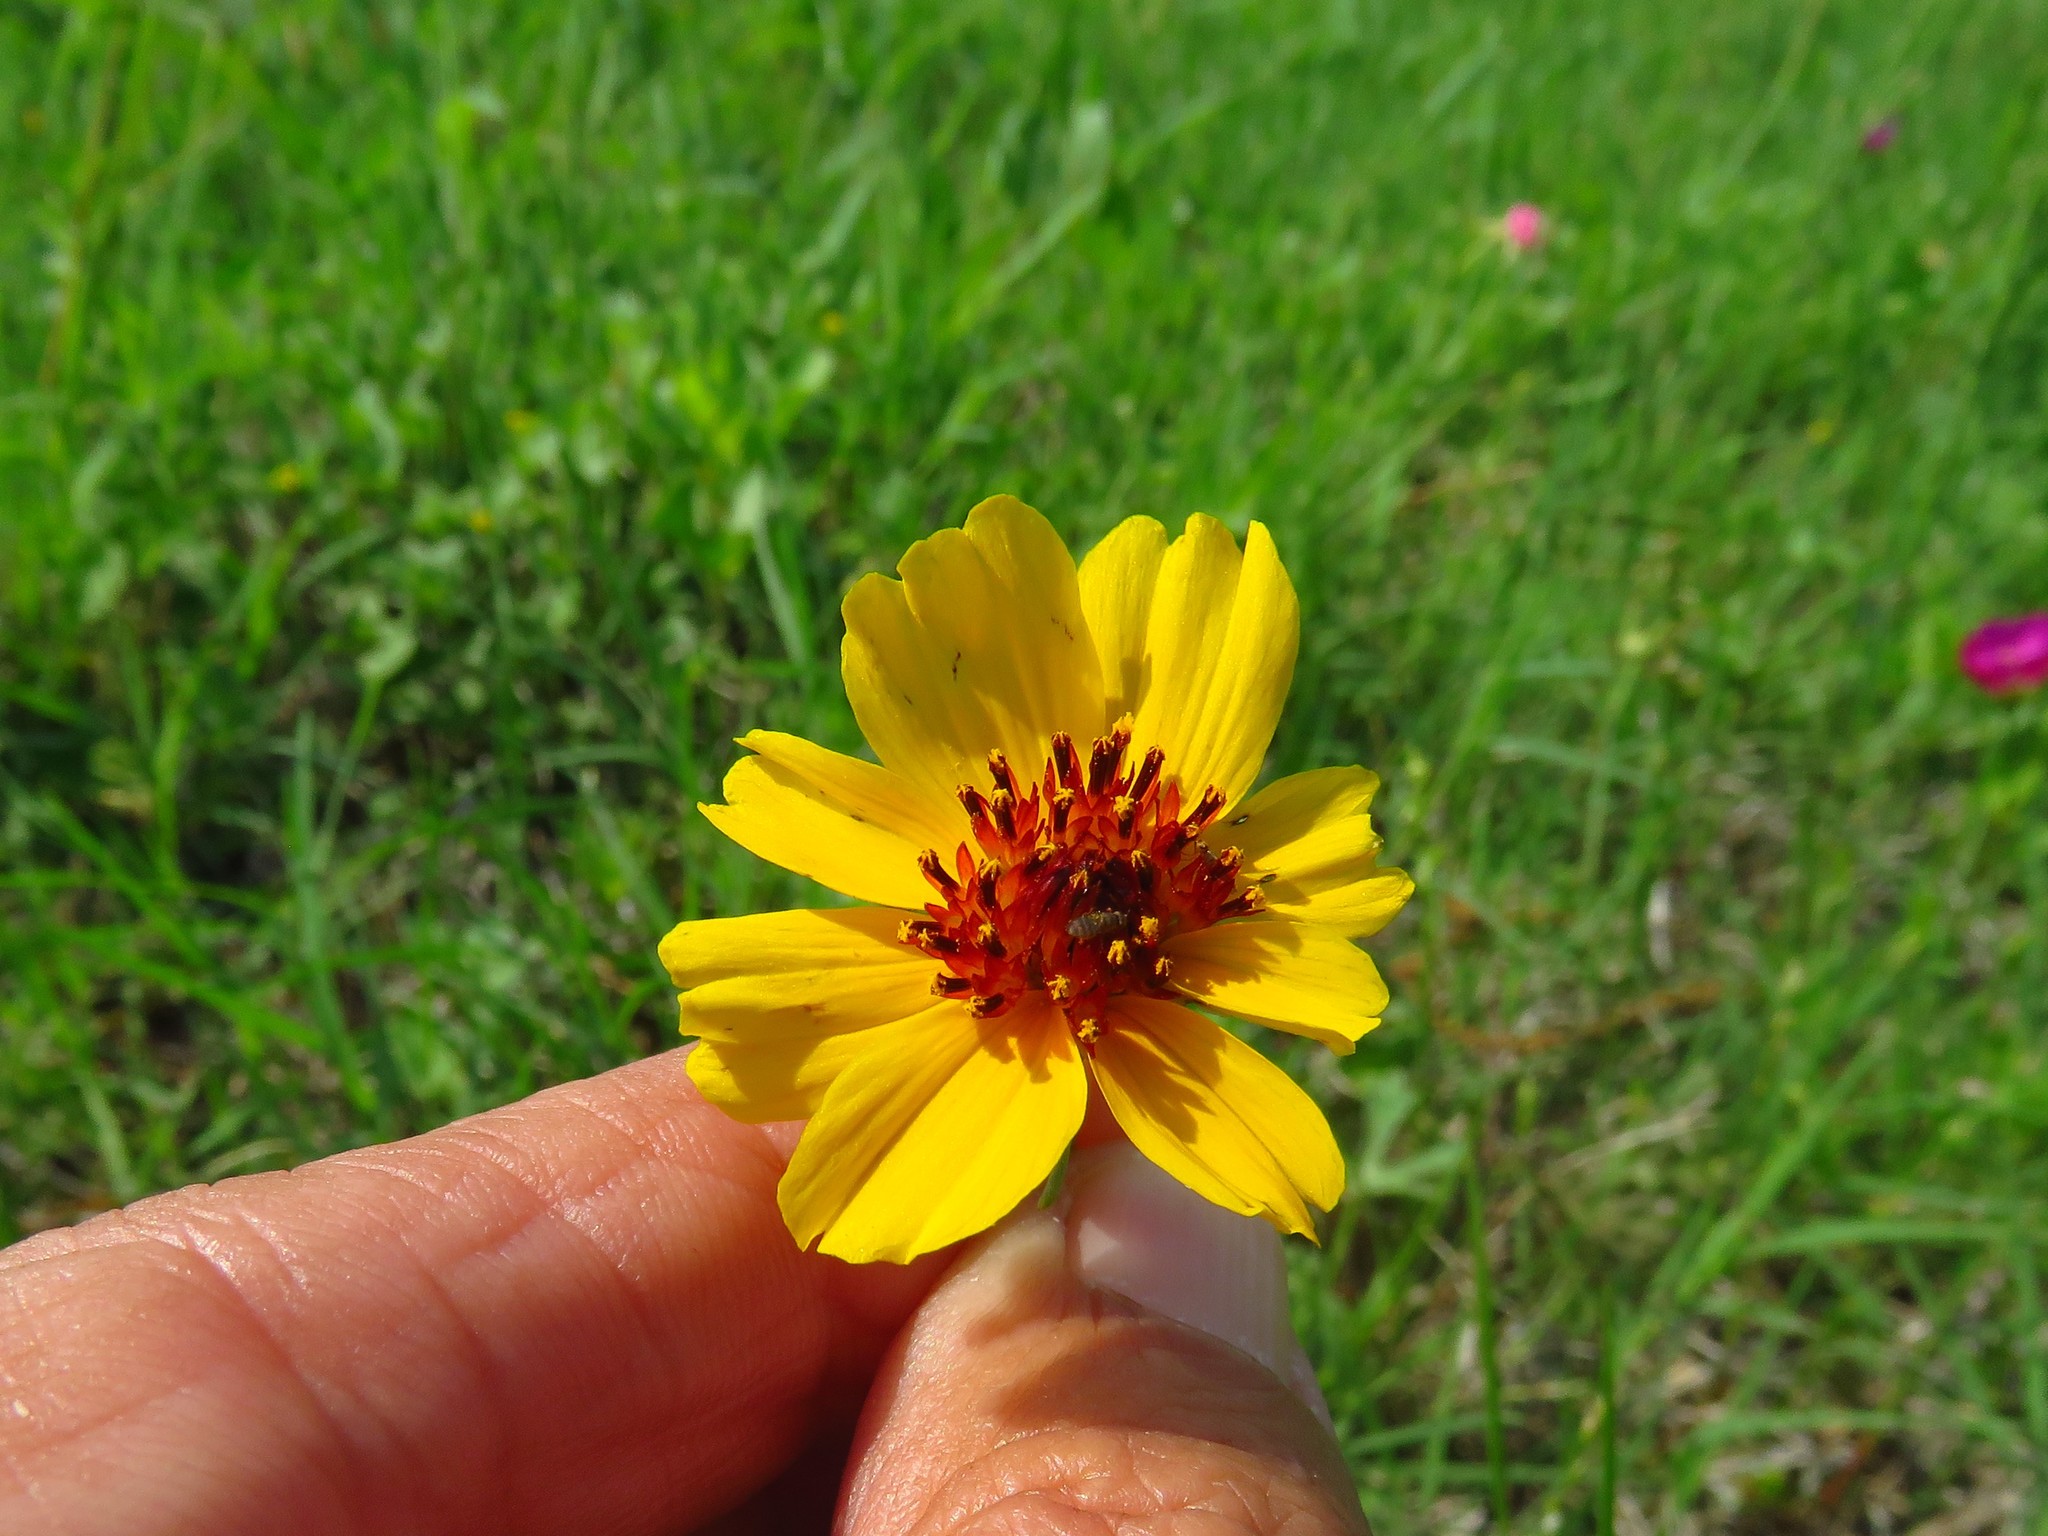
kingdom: Plantae
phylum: Tracheophyta
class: Magnoliopsida
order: Asterales
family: Asteraceae
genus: Thelesperma
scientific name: Thelesperma filifolium
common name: Stiff greenthread
